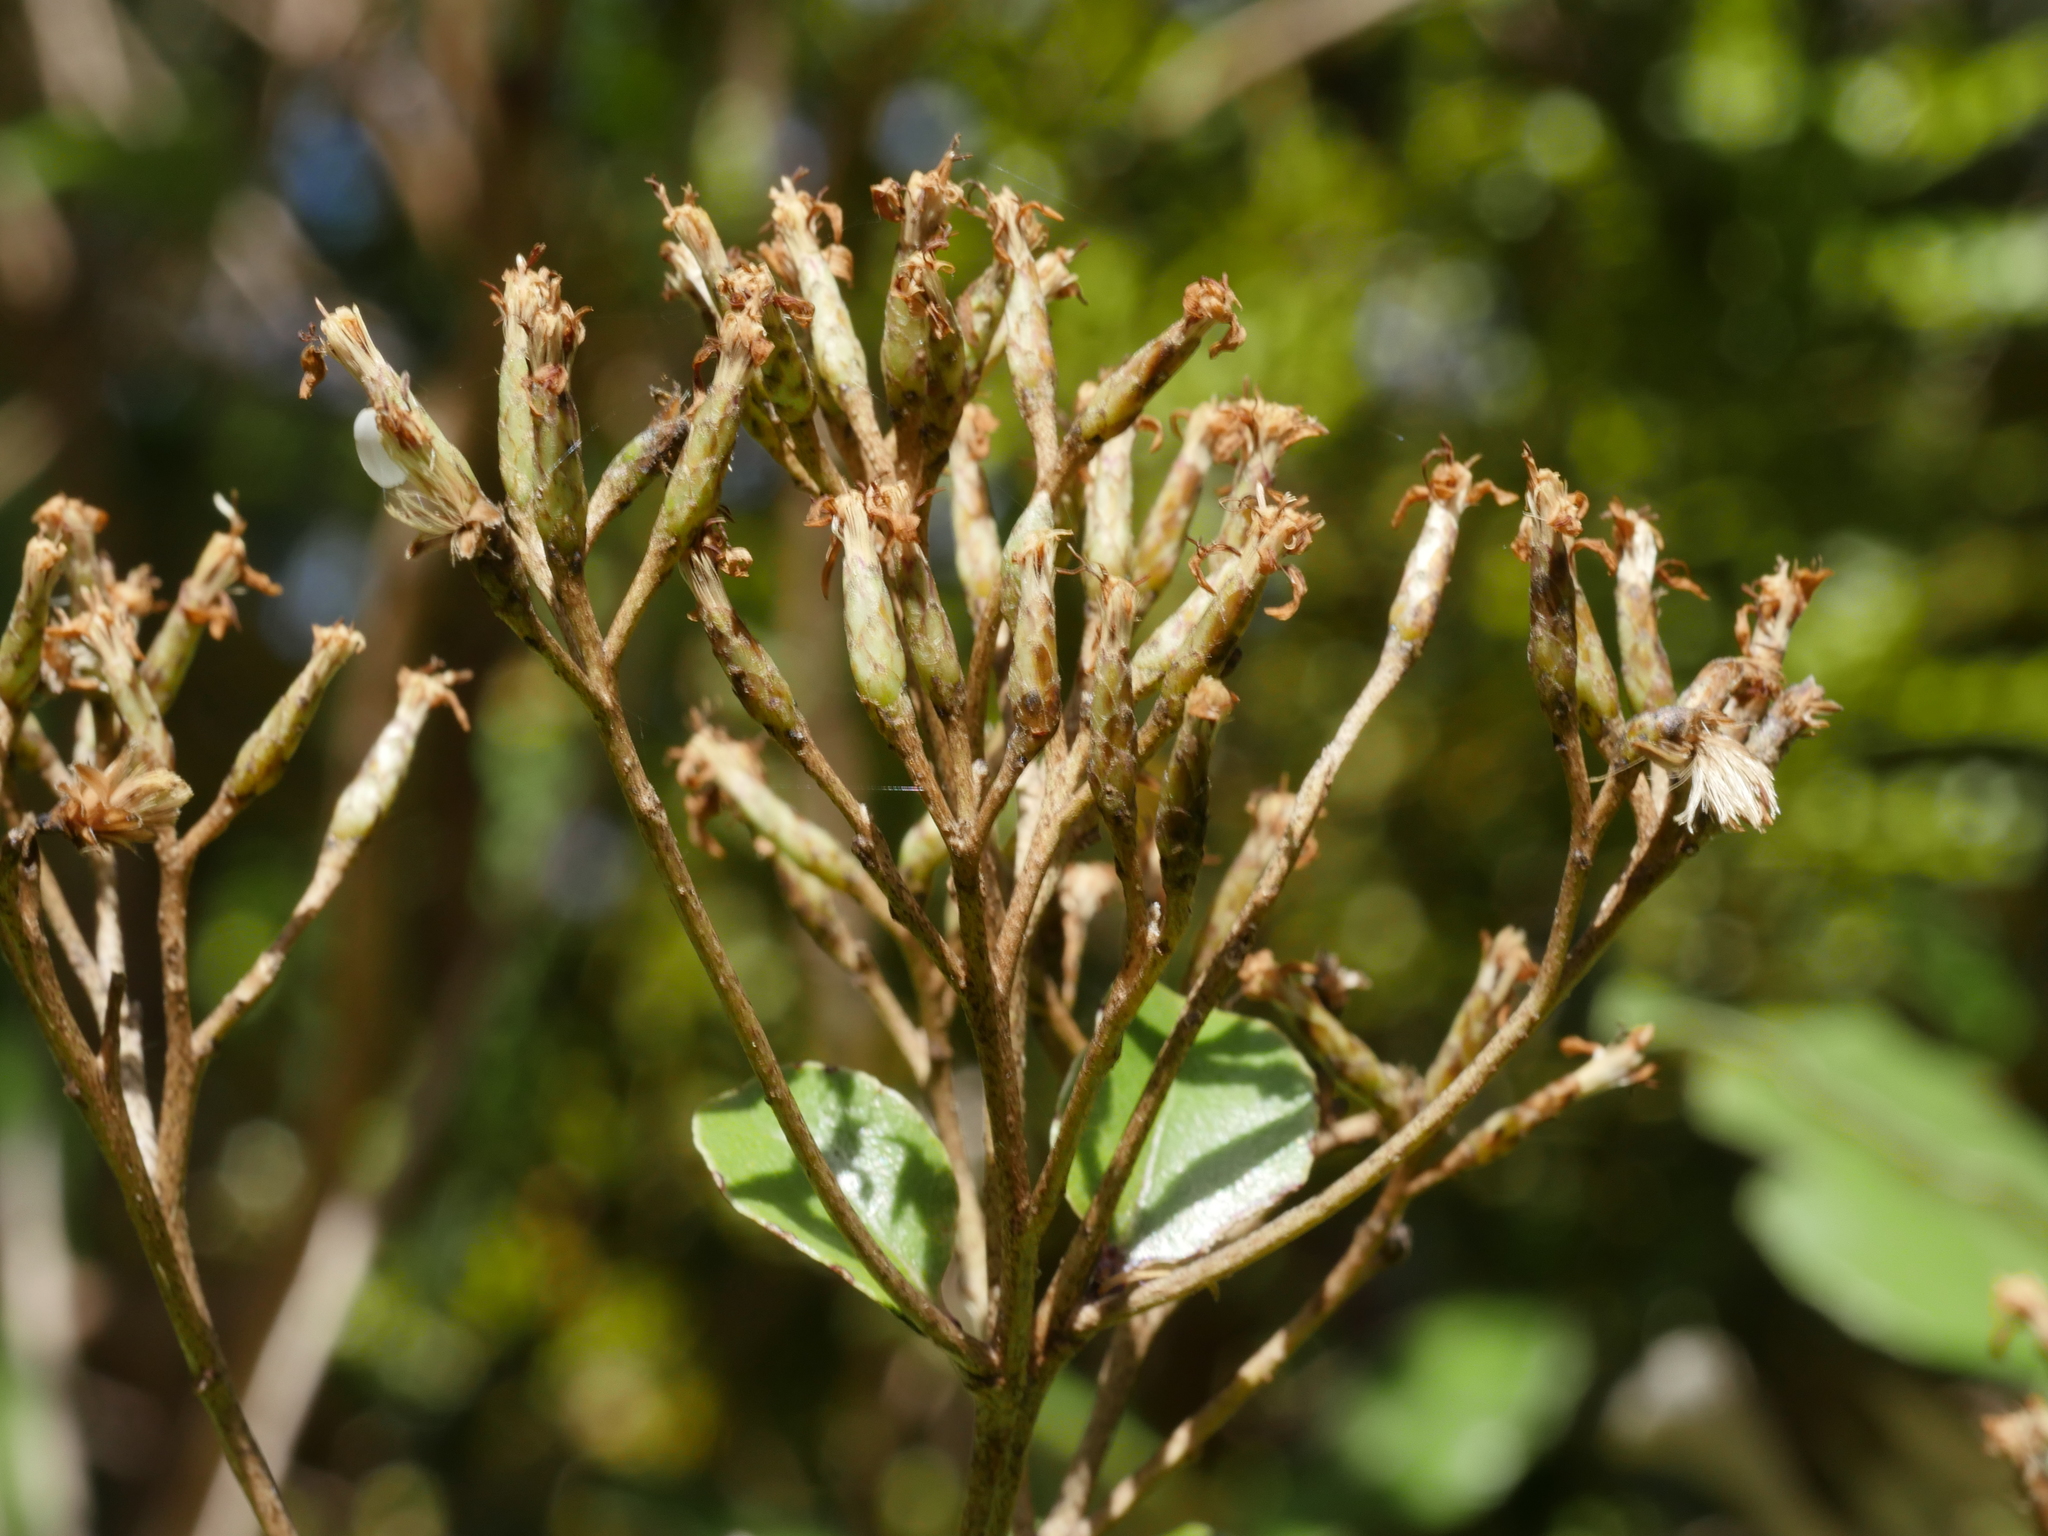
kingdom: Plantae
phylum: Tracheophyta
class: Magnoliopsida
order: Asterales
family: Asteraceae
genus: Olearia
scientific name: Olearia furfuracea
